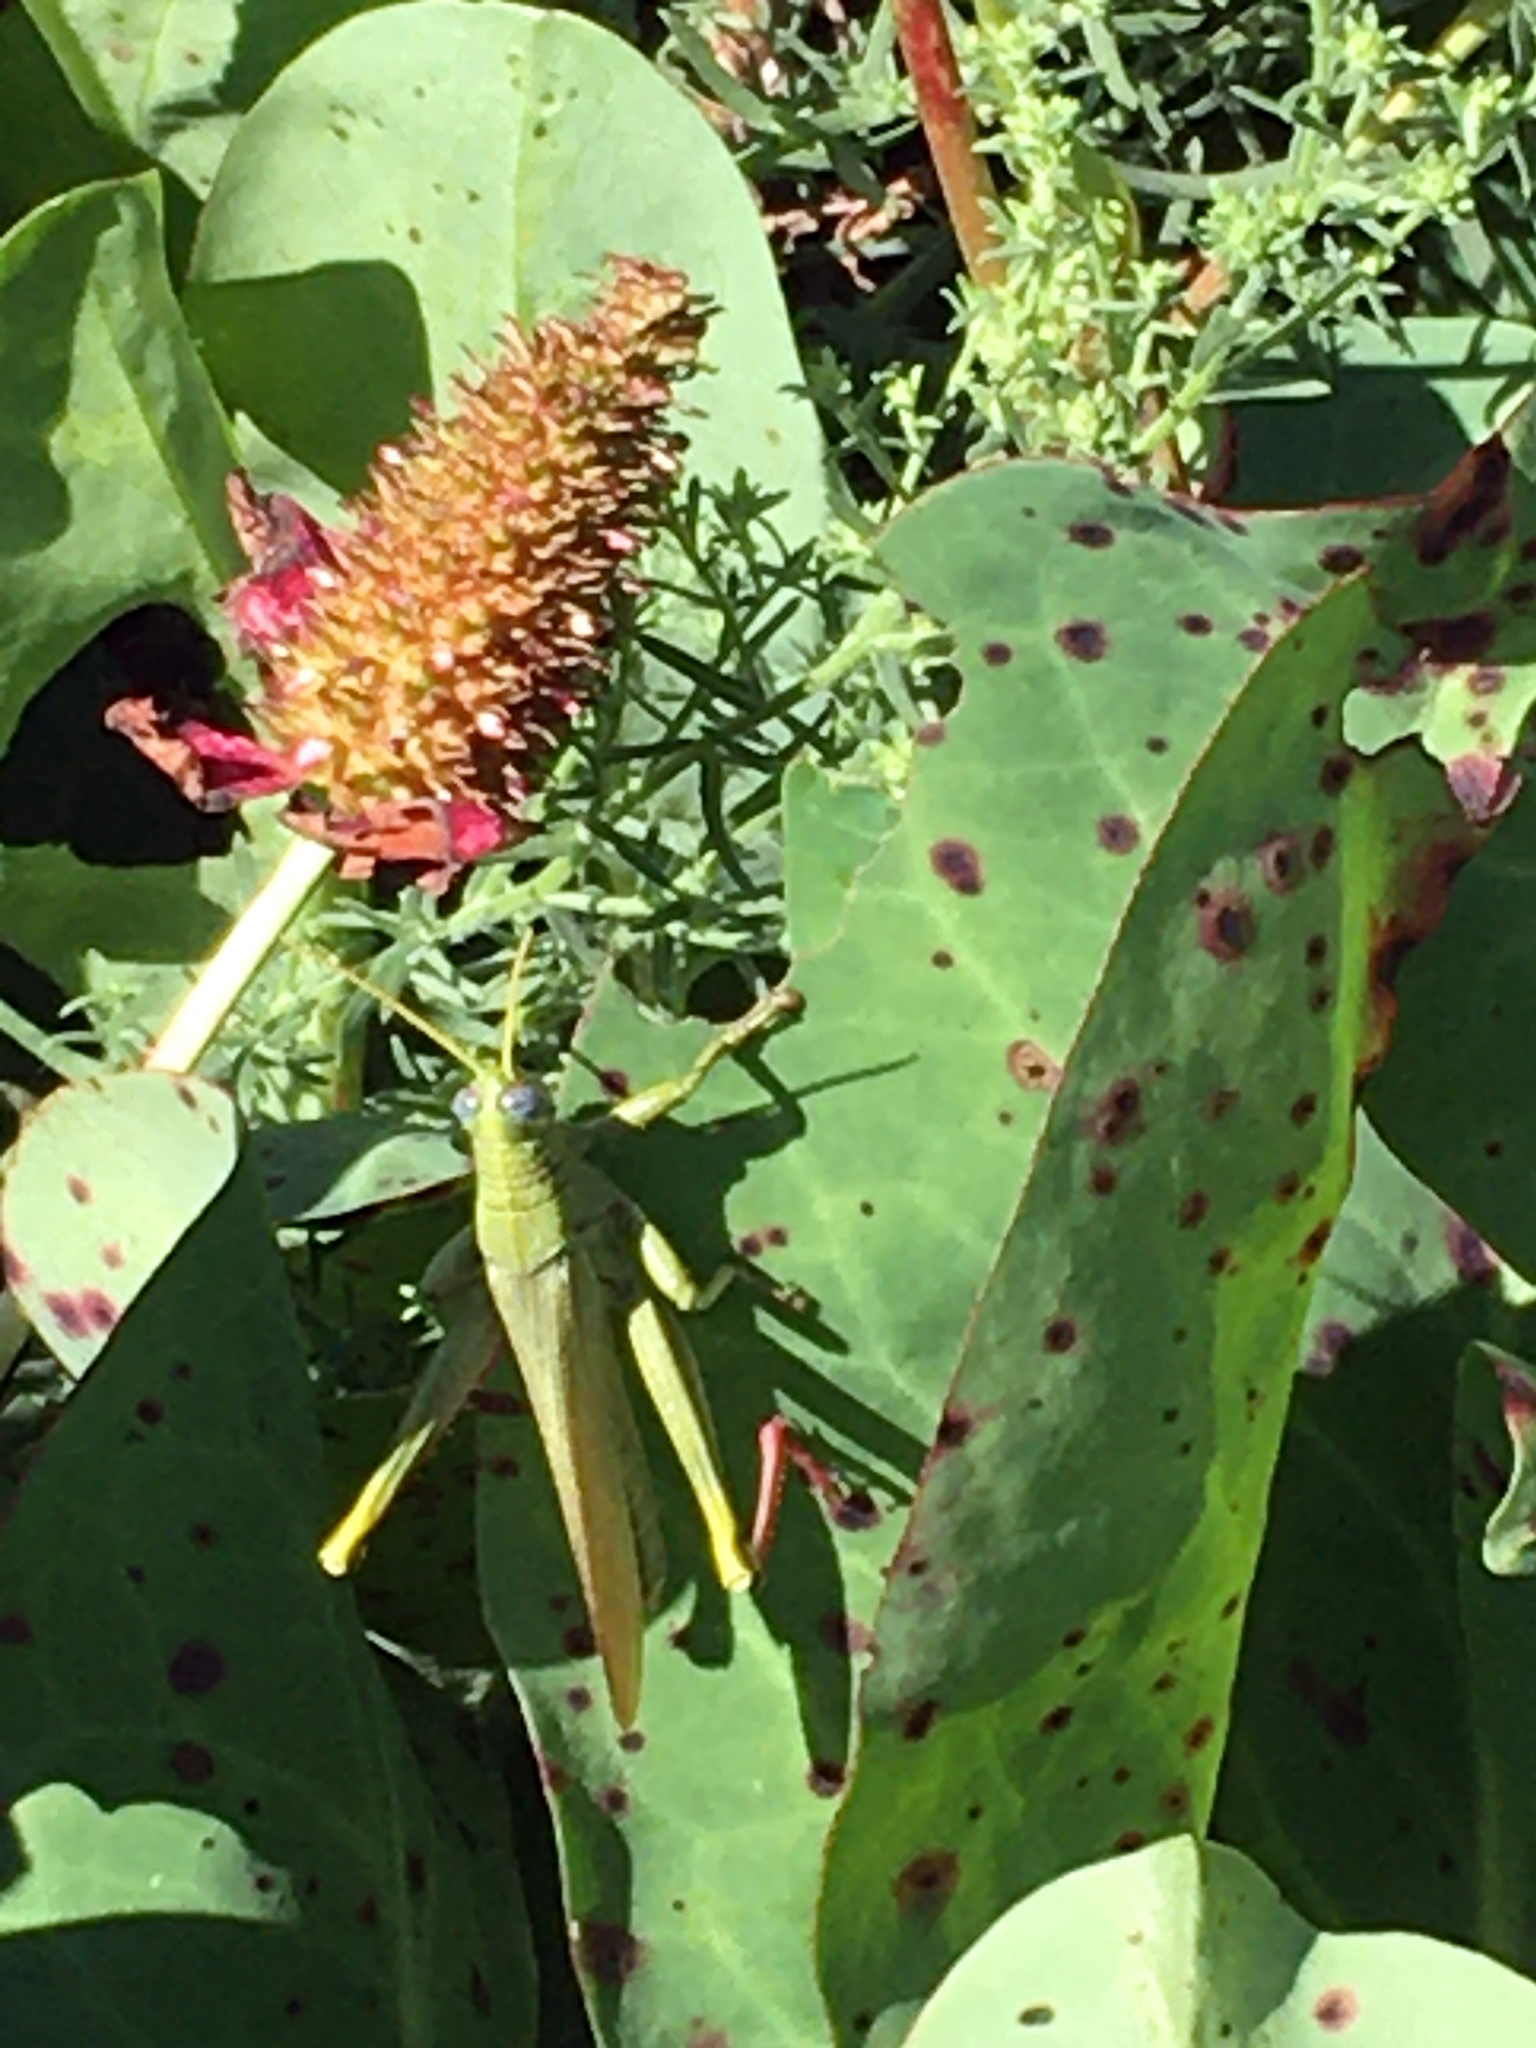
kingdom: Plantae
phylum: Tracheophyta
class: Magnoliopsida
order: Piperales
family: Saururaceae
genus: Anemopsis
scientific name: Anemopsis californica
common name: Apache-beads
